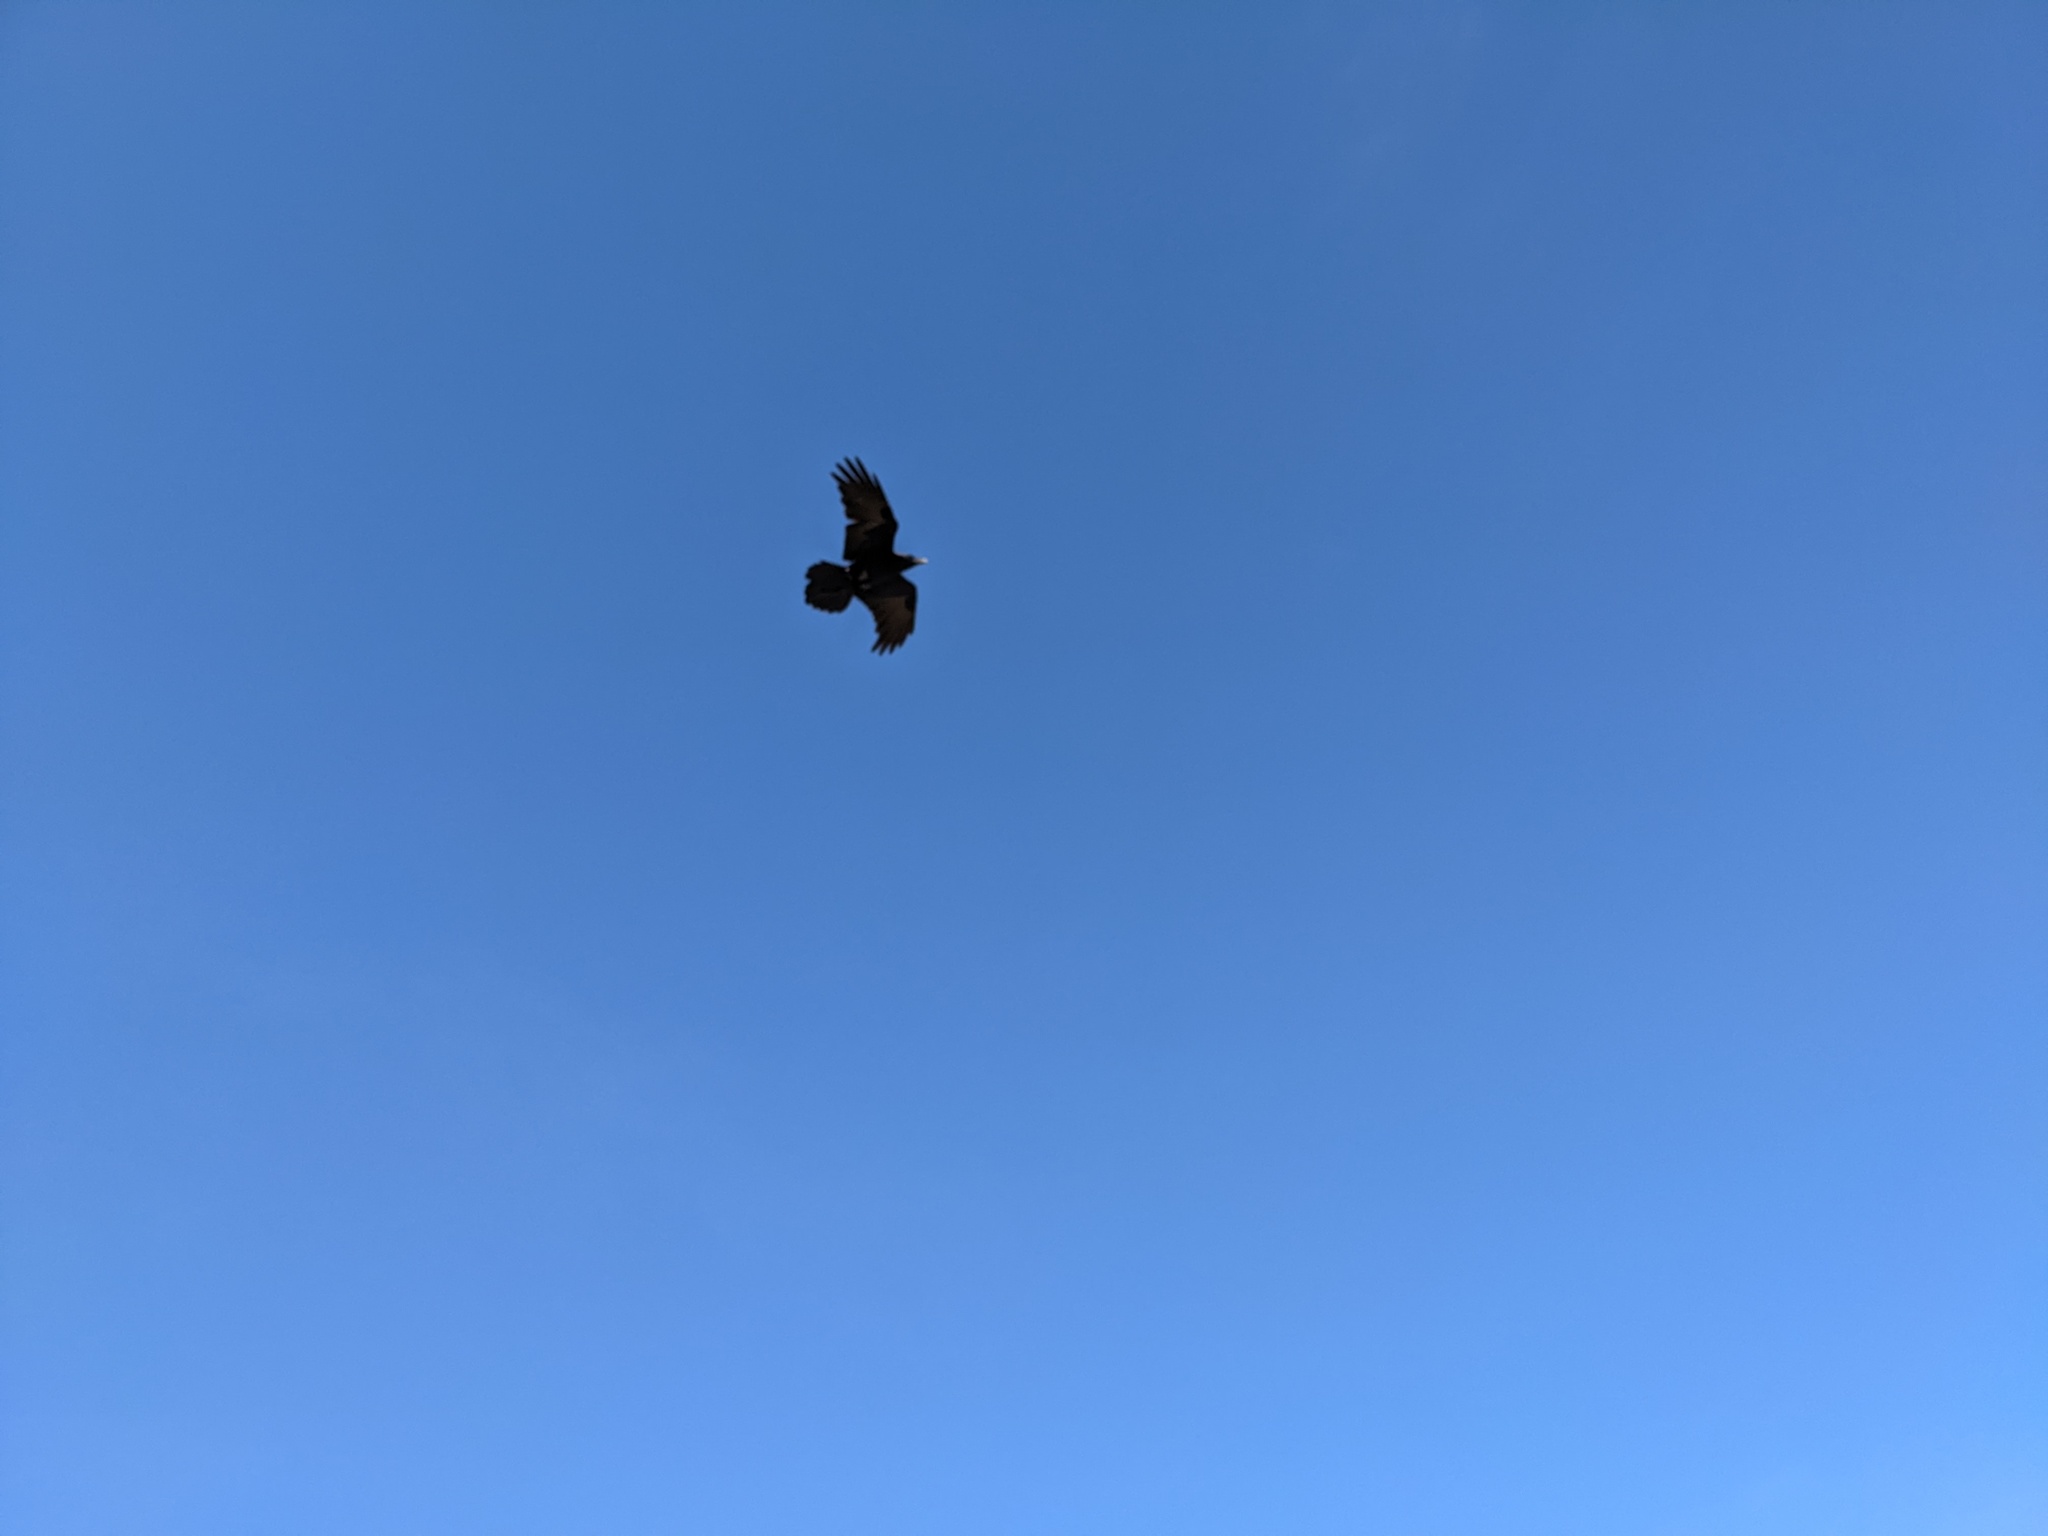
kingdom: Animalia
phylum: Chordata
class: Aves
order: Passeriformes
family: Corvidae
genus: Corvus
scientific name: Corvus corax
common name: Common raven
